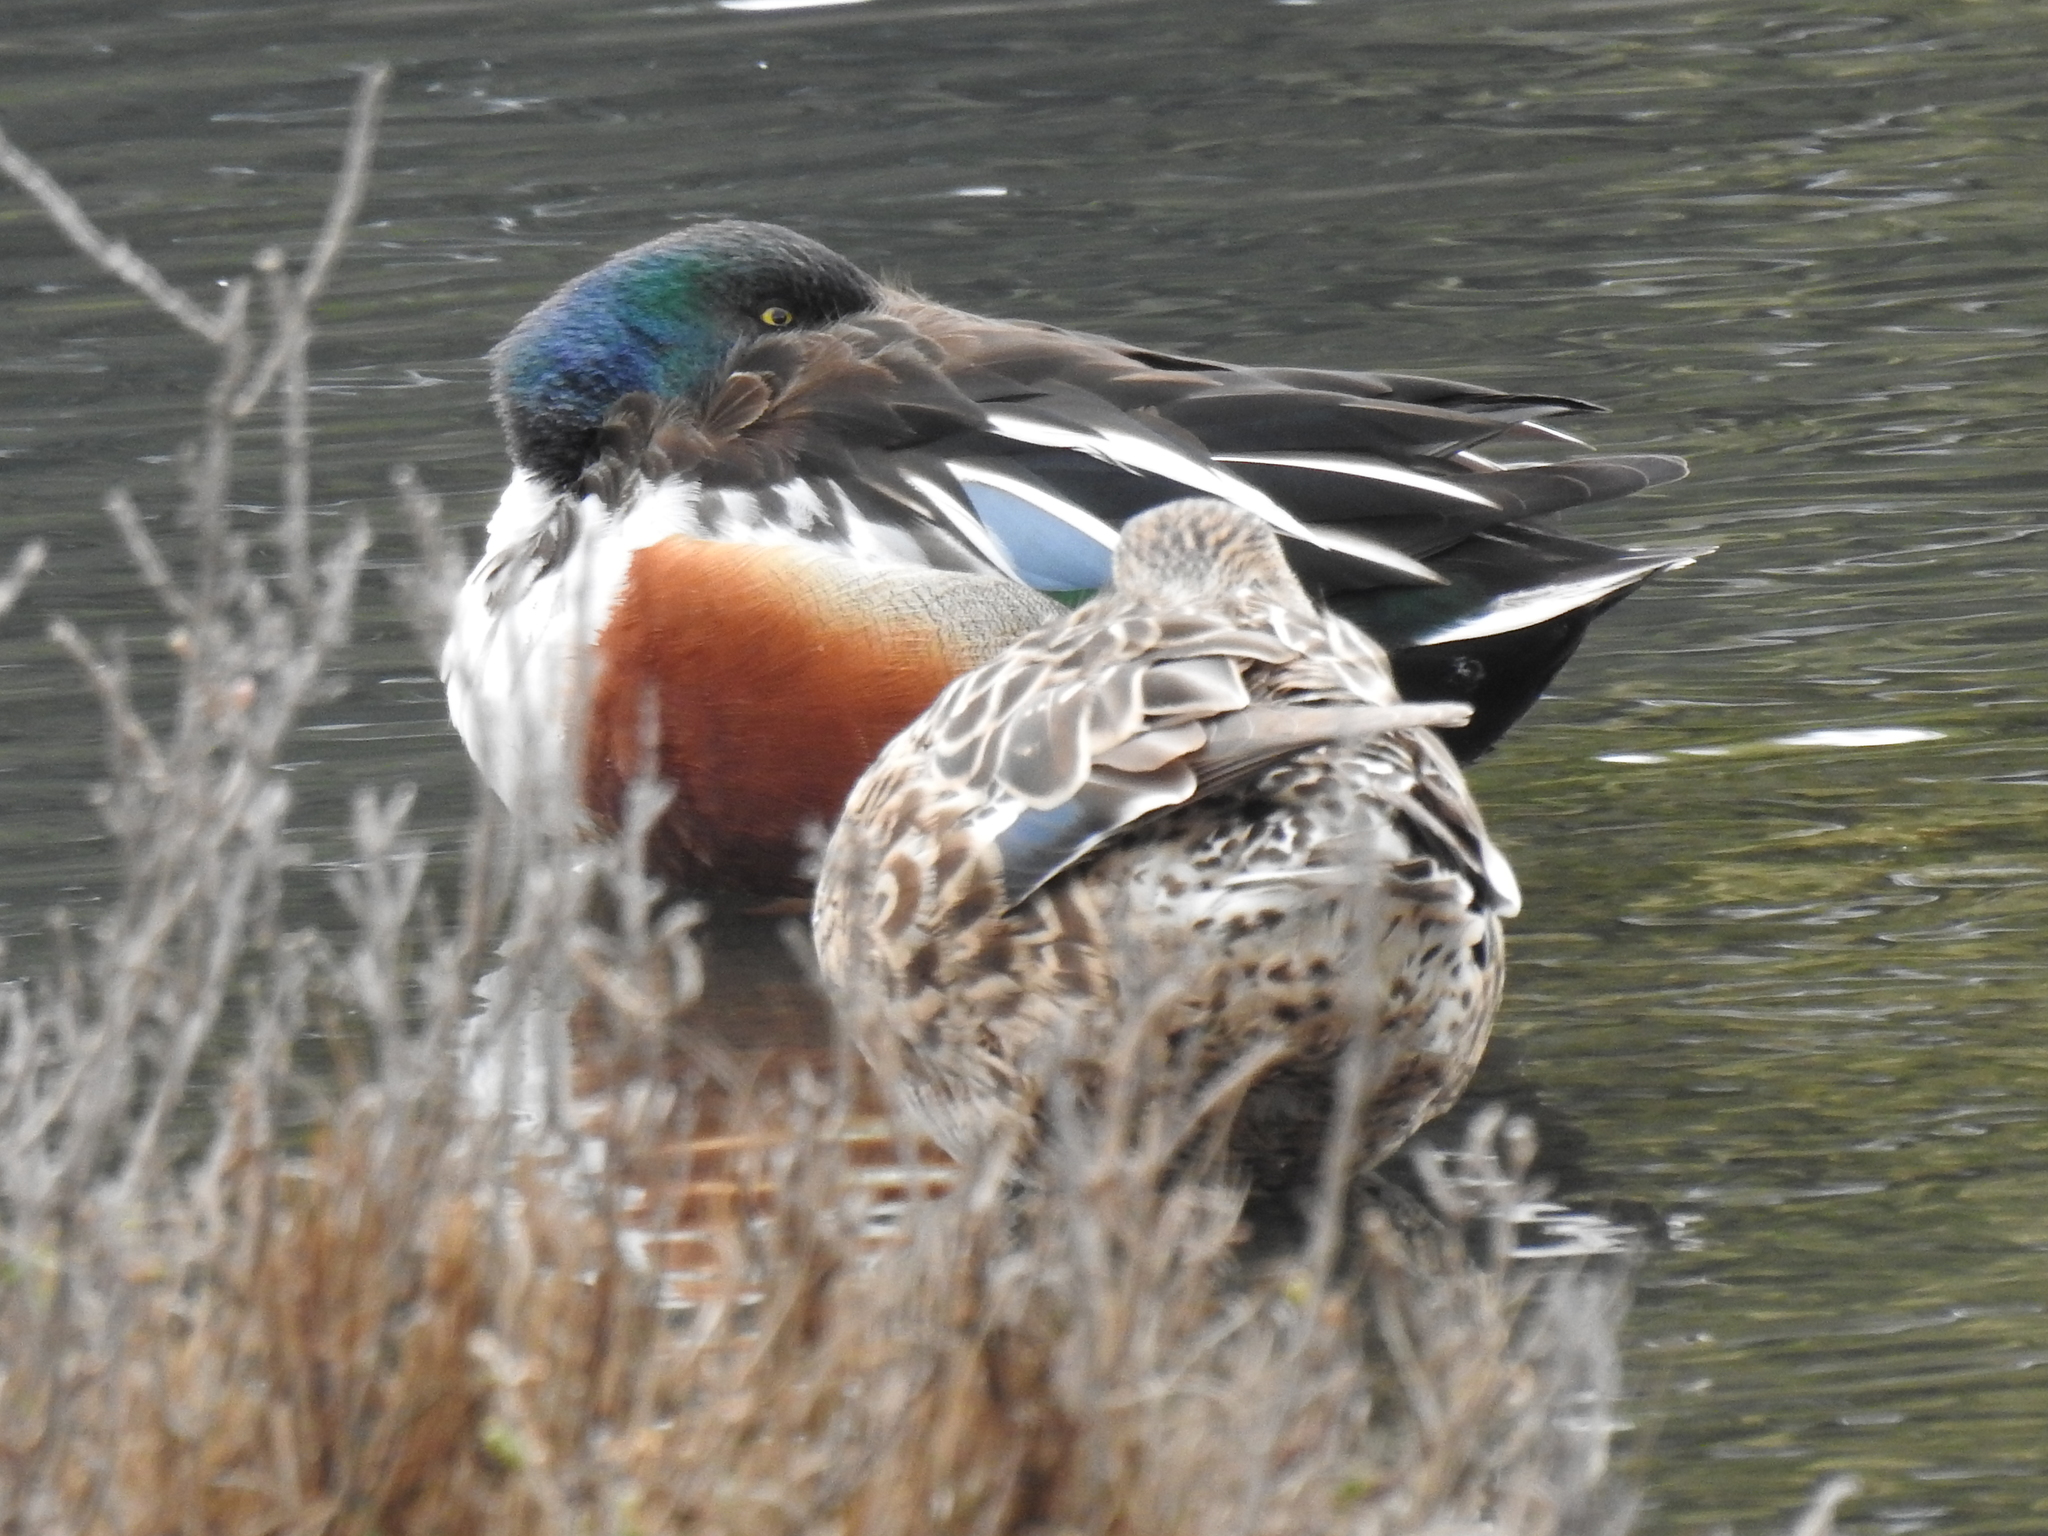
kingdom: Animalia
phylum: Chordata
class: Aves
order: Anseriformes
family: Anatidae
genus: Spatula
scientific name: Spatula clypeata
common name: Northern shoveler
